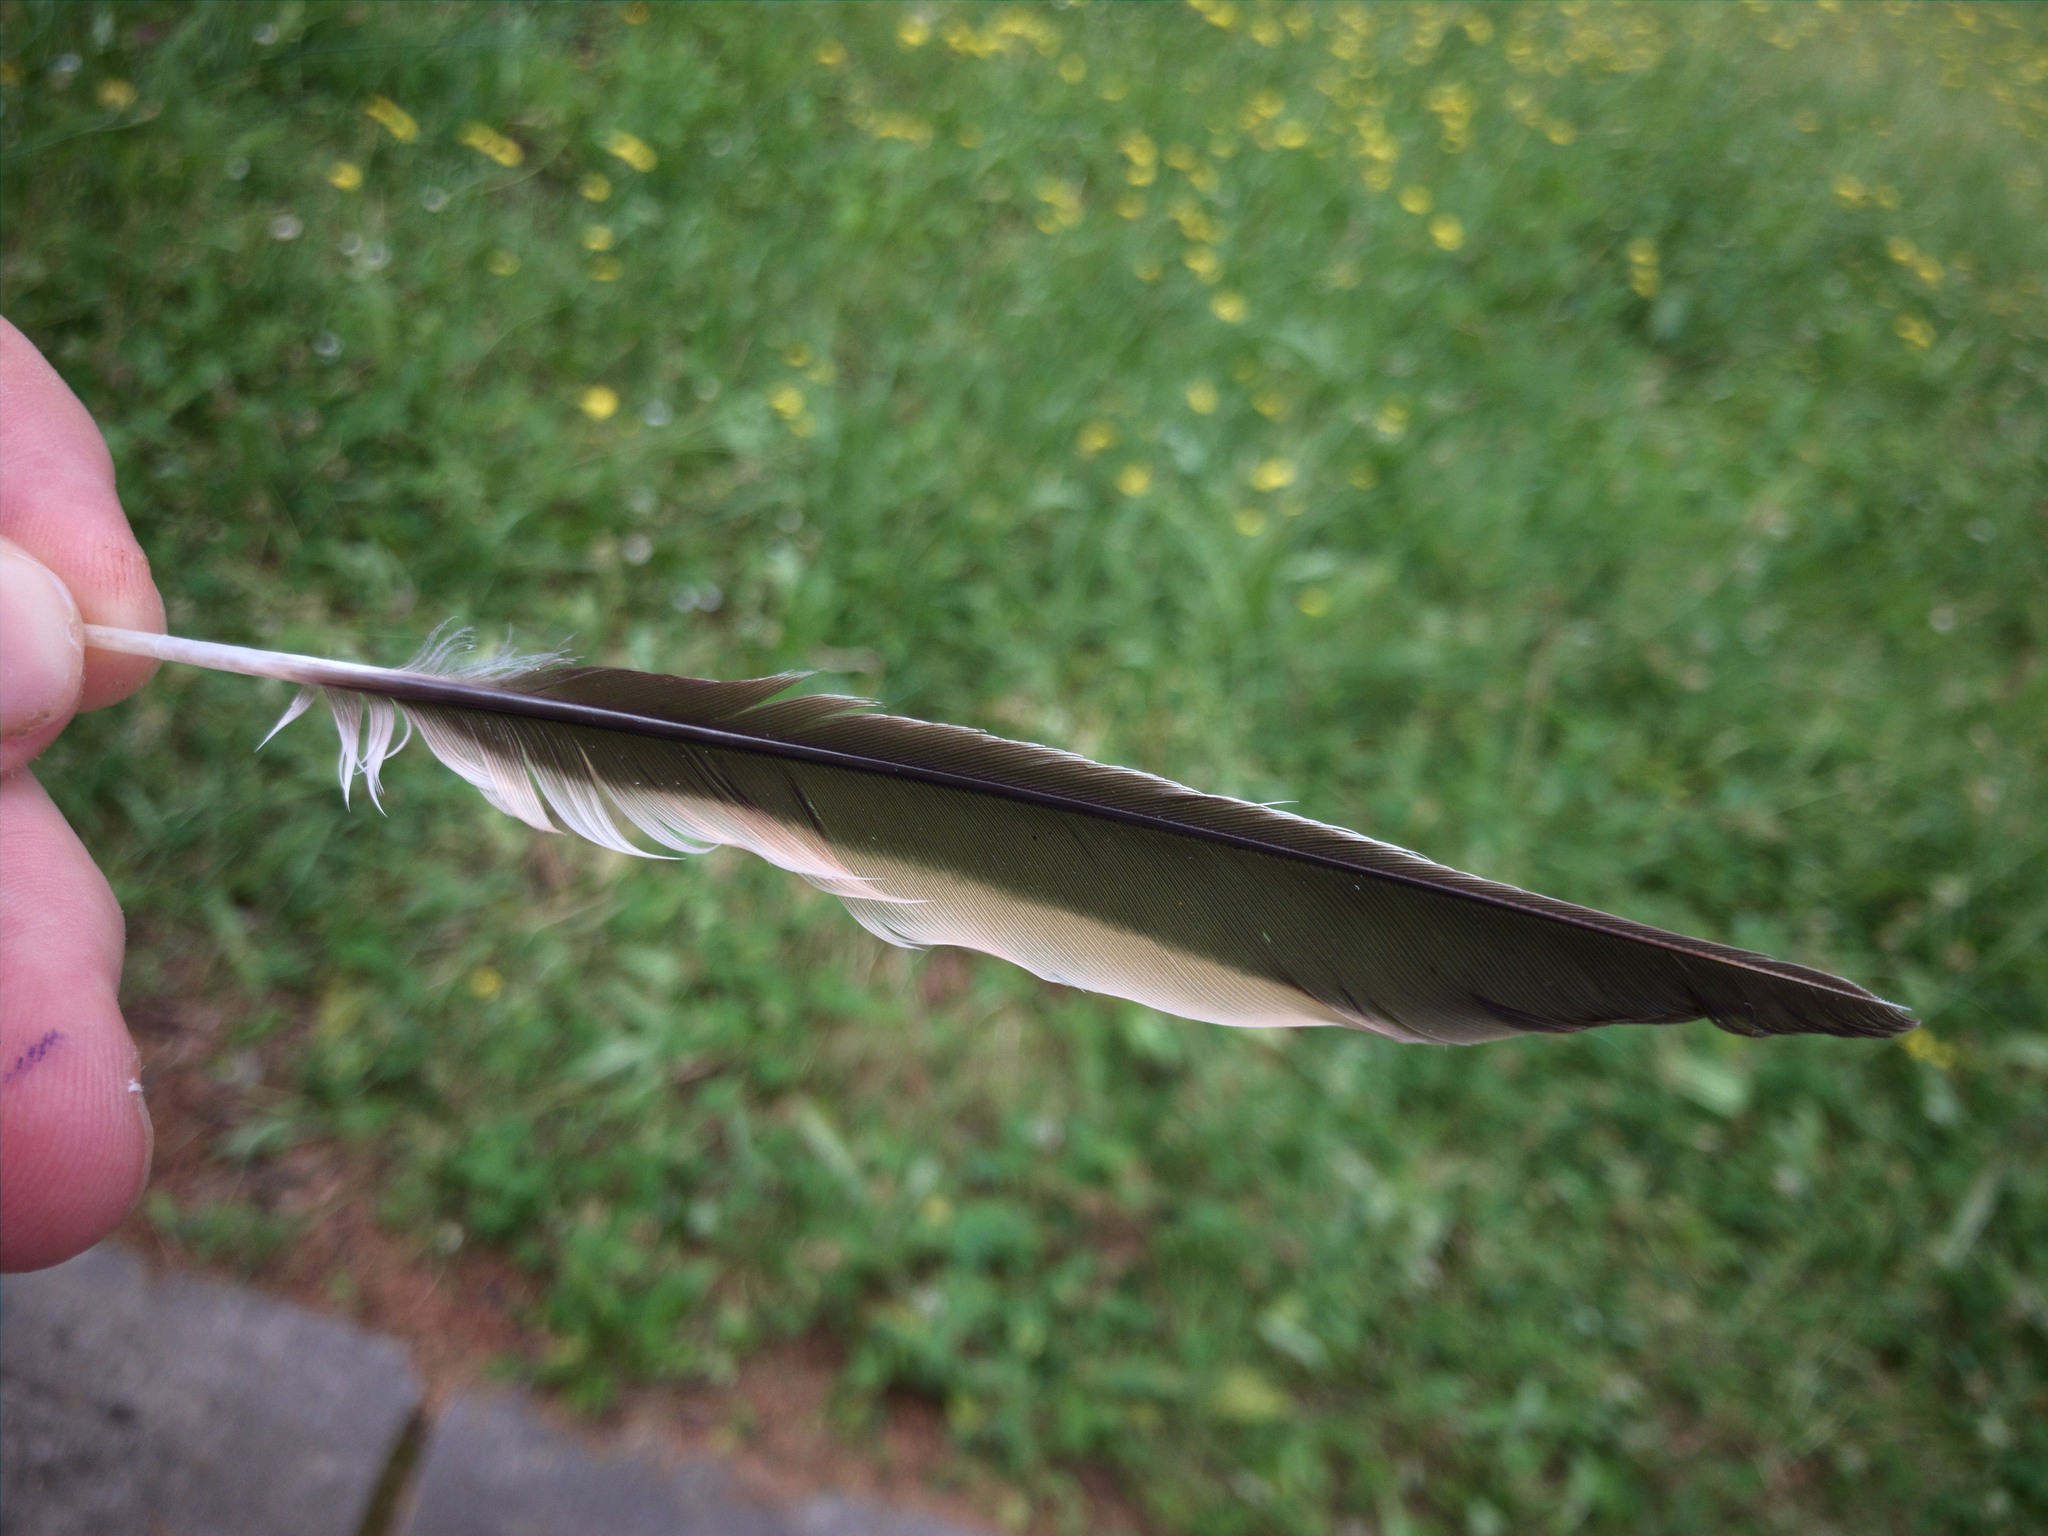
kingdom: Animalia
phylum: Chordata
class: Aves
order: Passeriformes
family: Meliphagidae
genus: Anthochaera
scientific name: Anthochaera carunculata
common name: Red wattlebird
